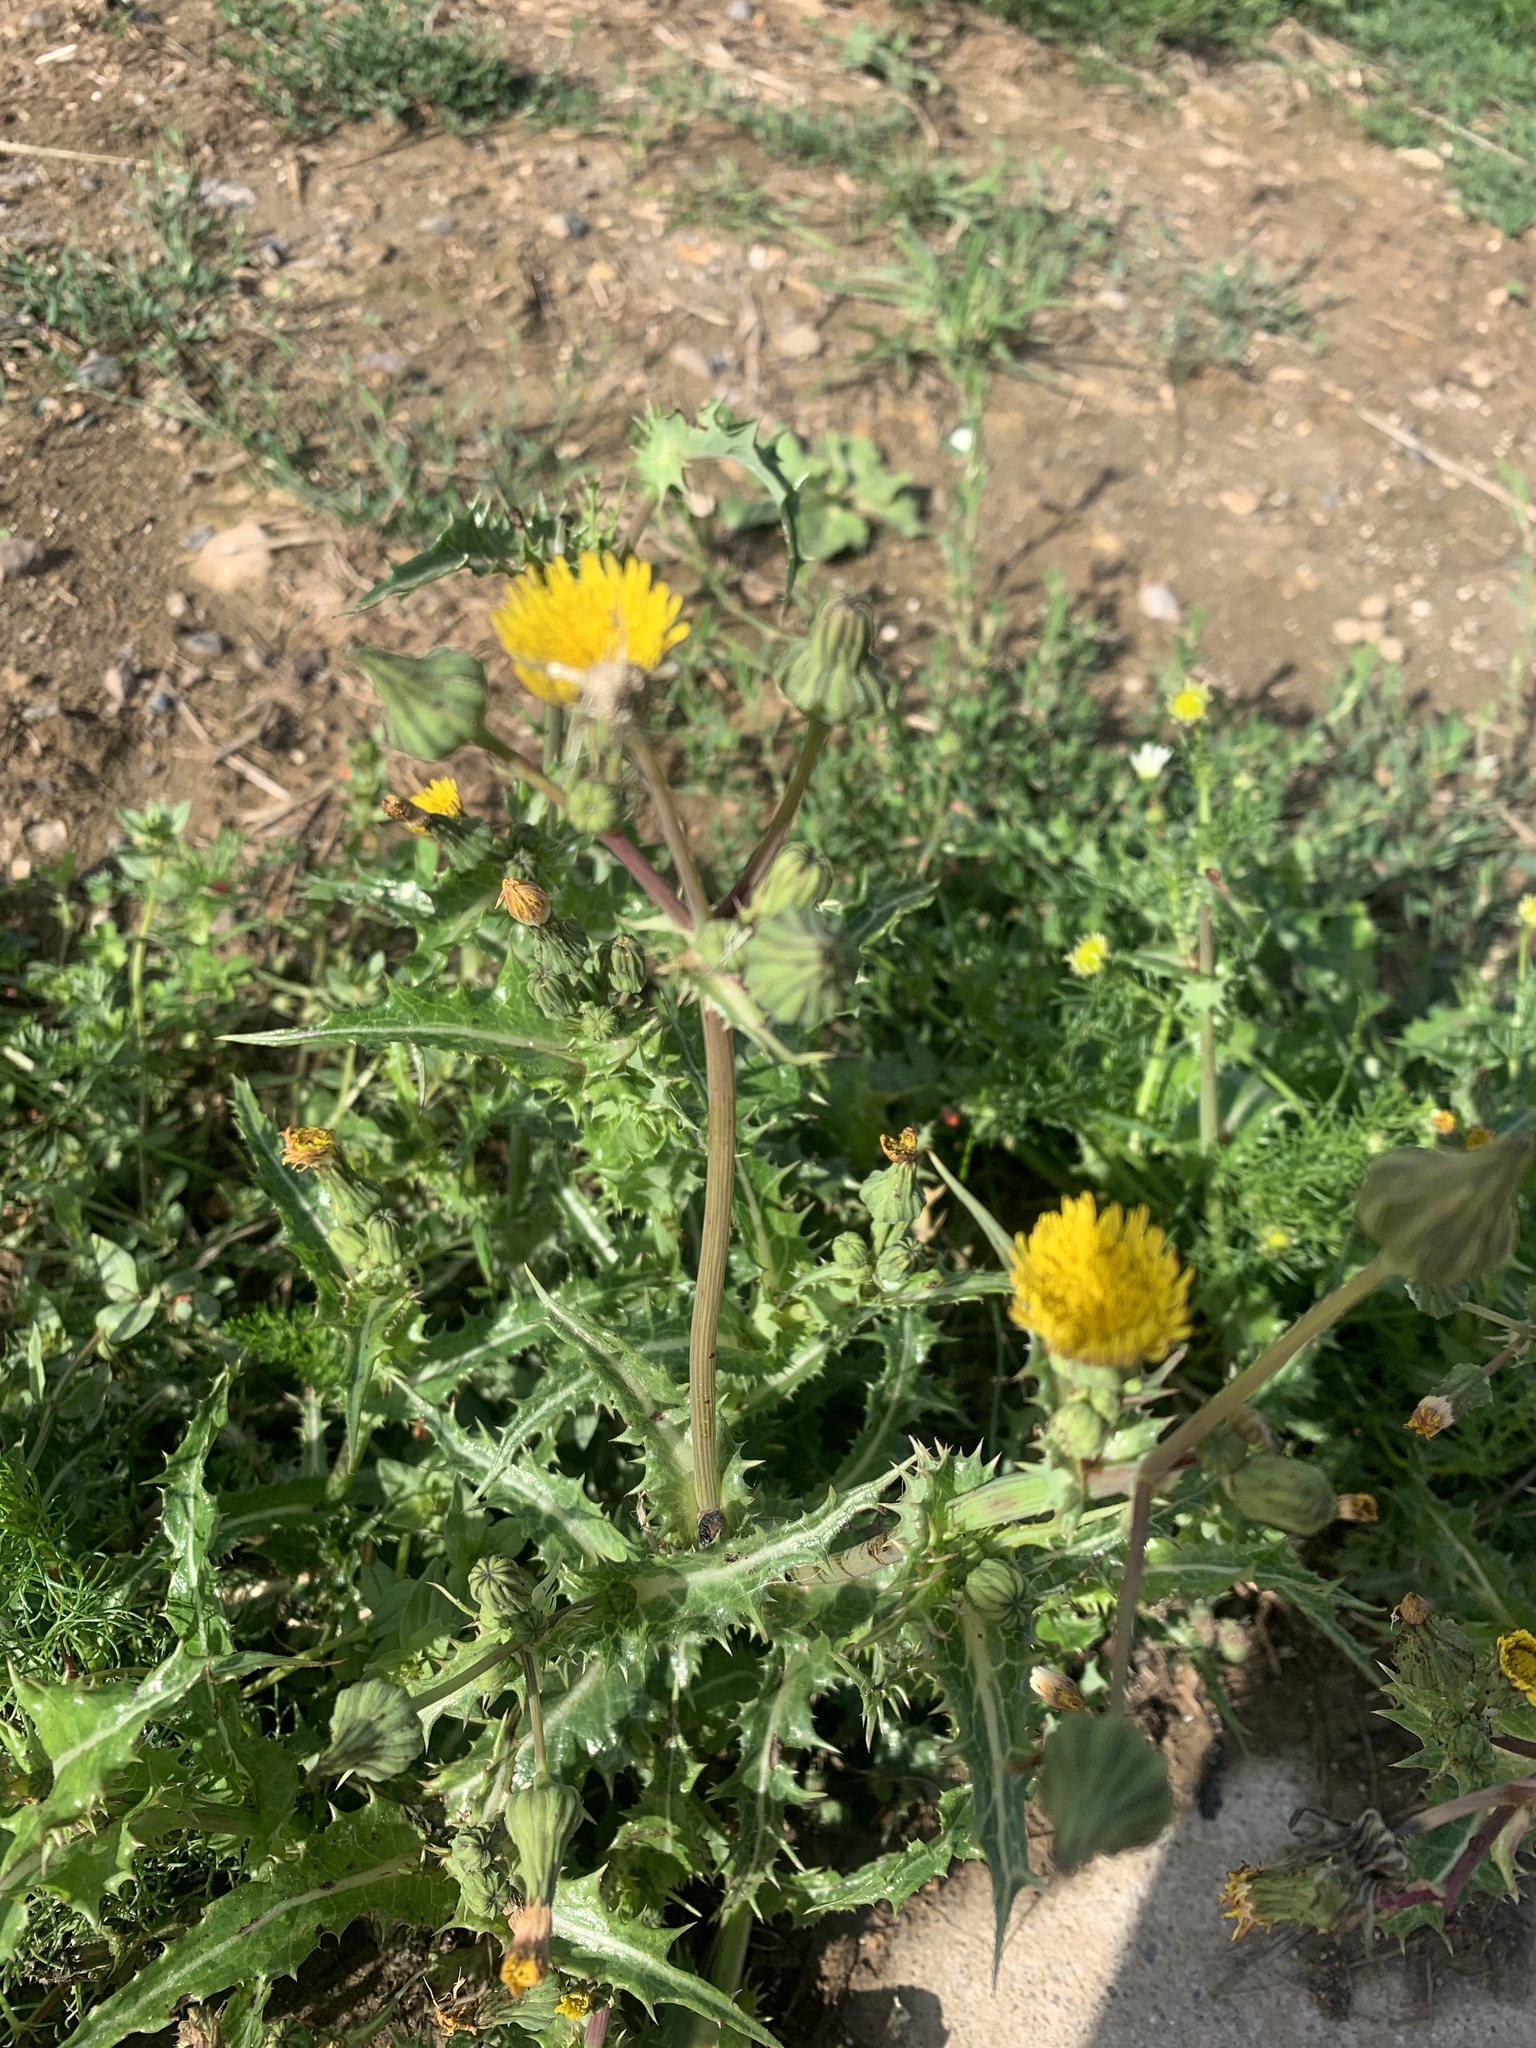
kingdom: Plantae
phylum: Tracheophyta
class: Magnoliopsida
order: Asterales
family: Asteraceae
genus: Sonchus
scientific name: Sonchus asper
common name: Prickly sow-thistle
